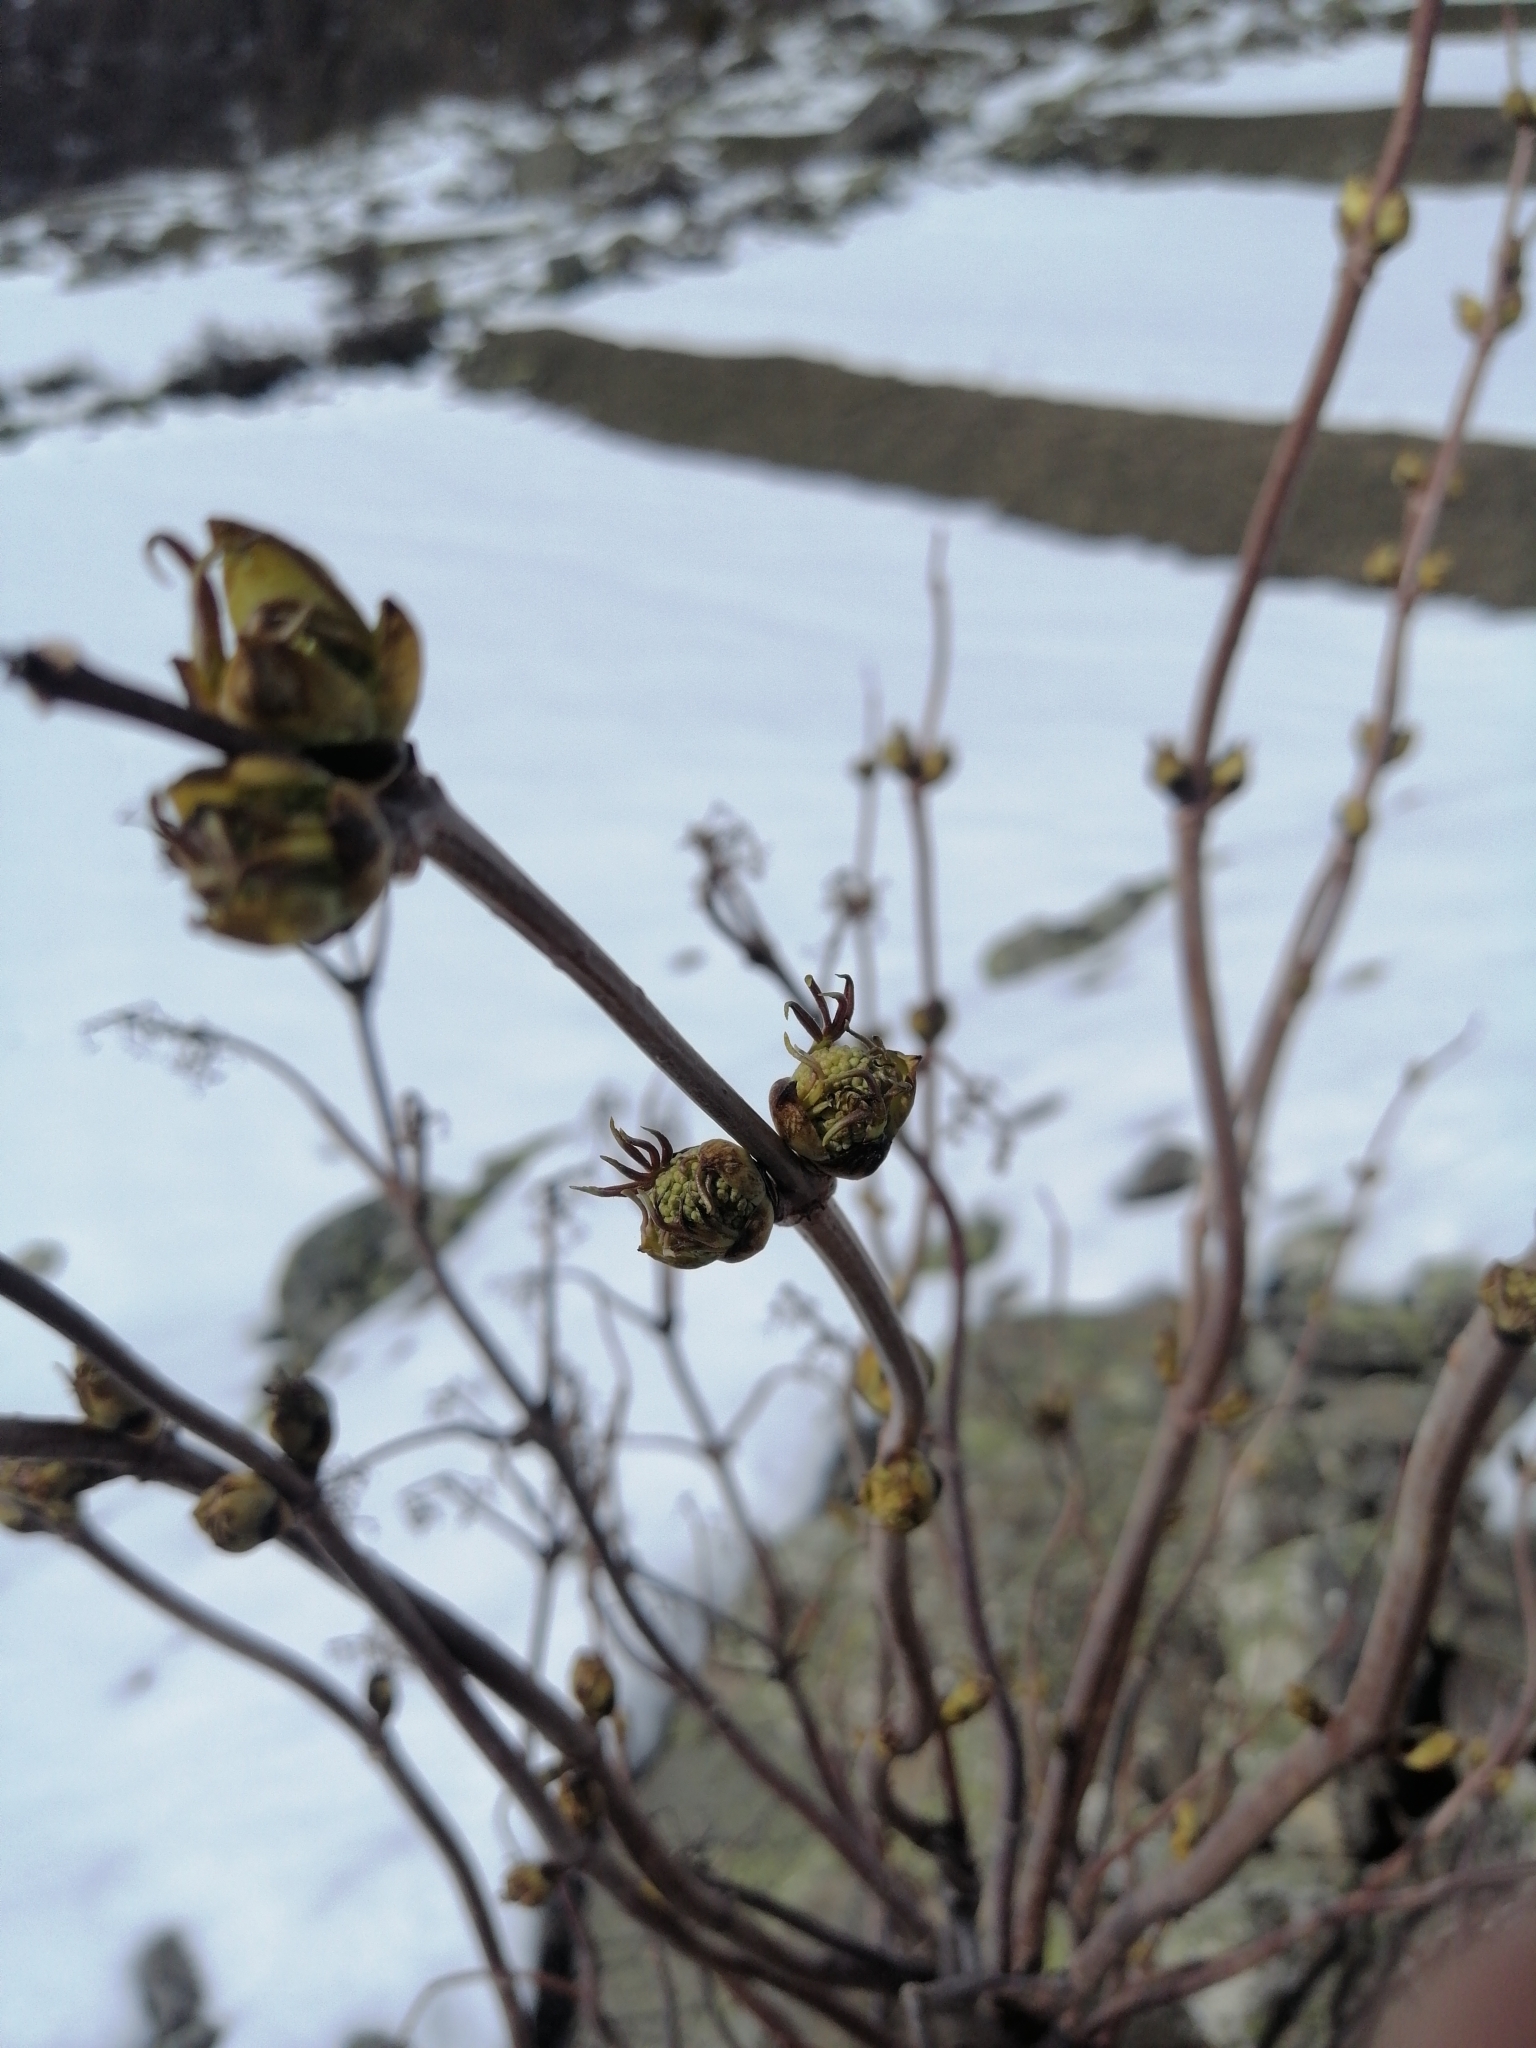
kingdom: Plantae
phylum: Tracheophyta
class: Magnoliopsida
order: Dipsacales
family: Viburnaceae
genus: Sambucus
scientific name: Sambucus racemosa
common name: Red-berried elder
